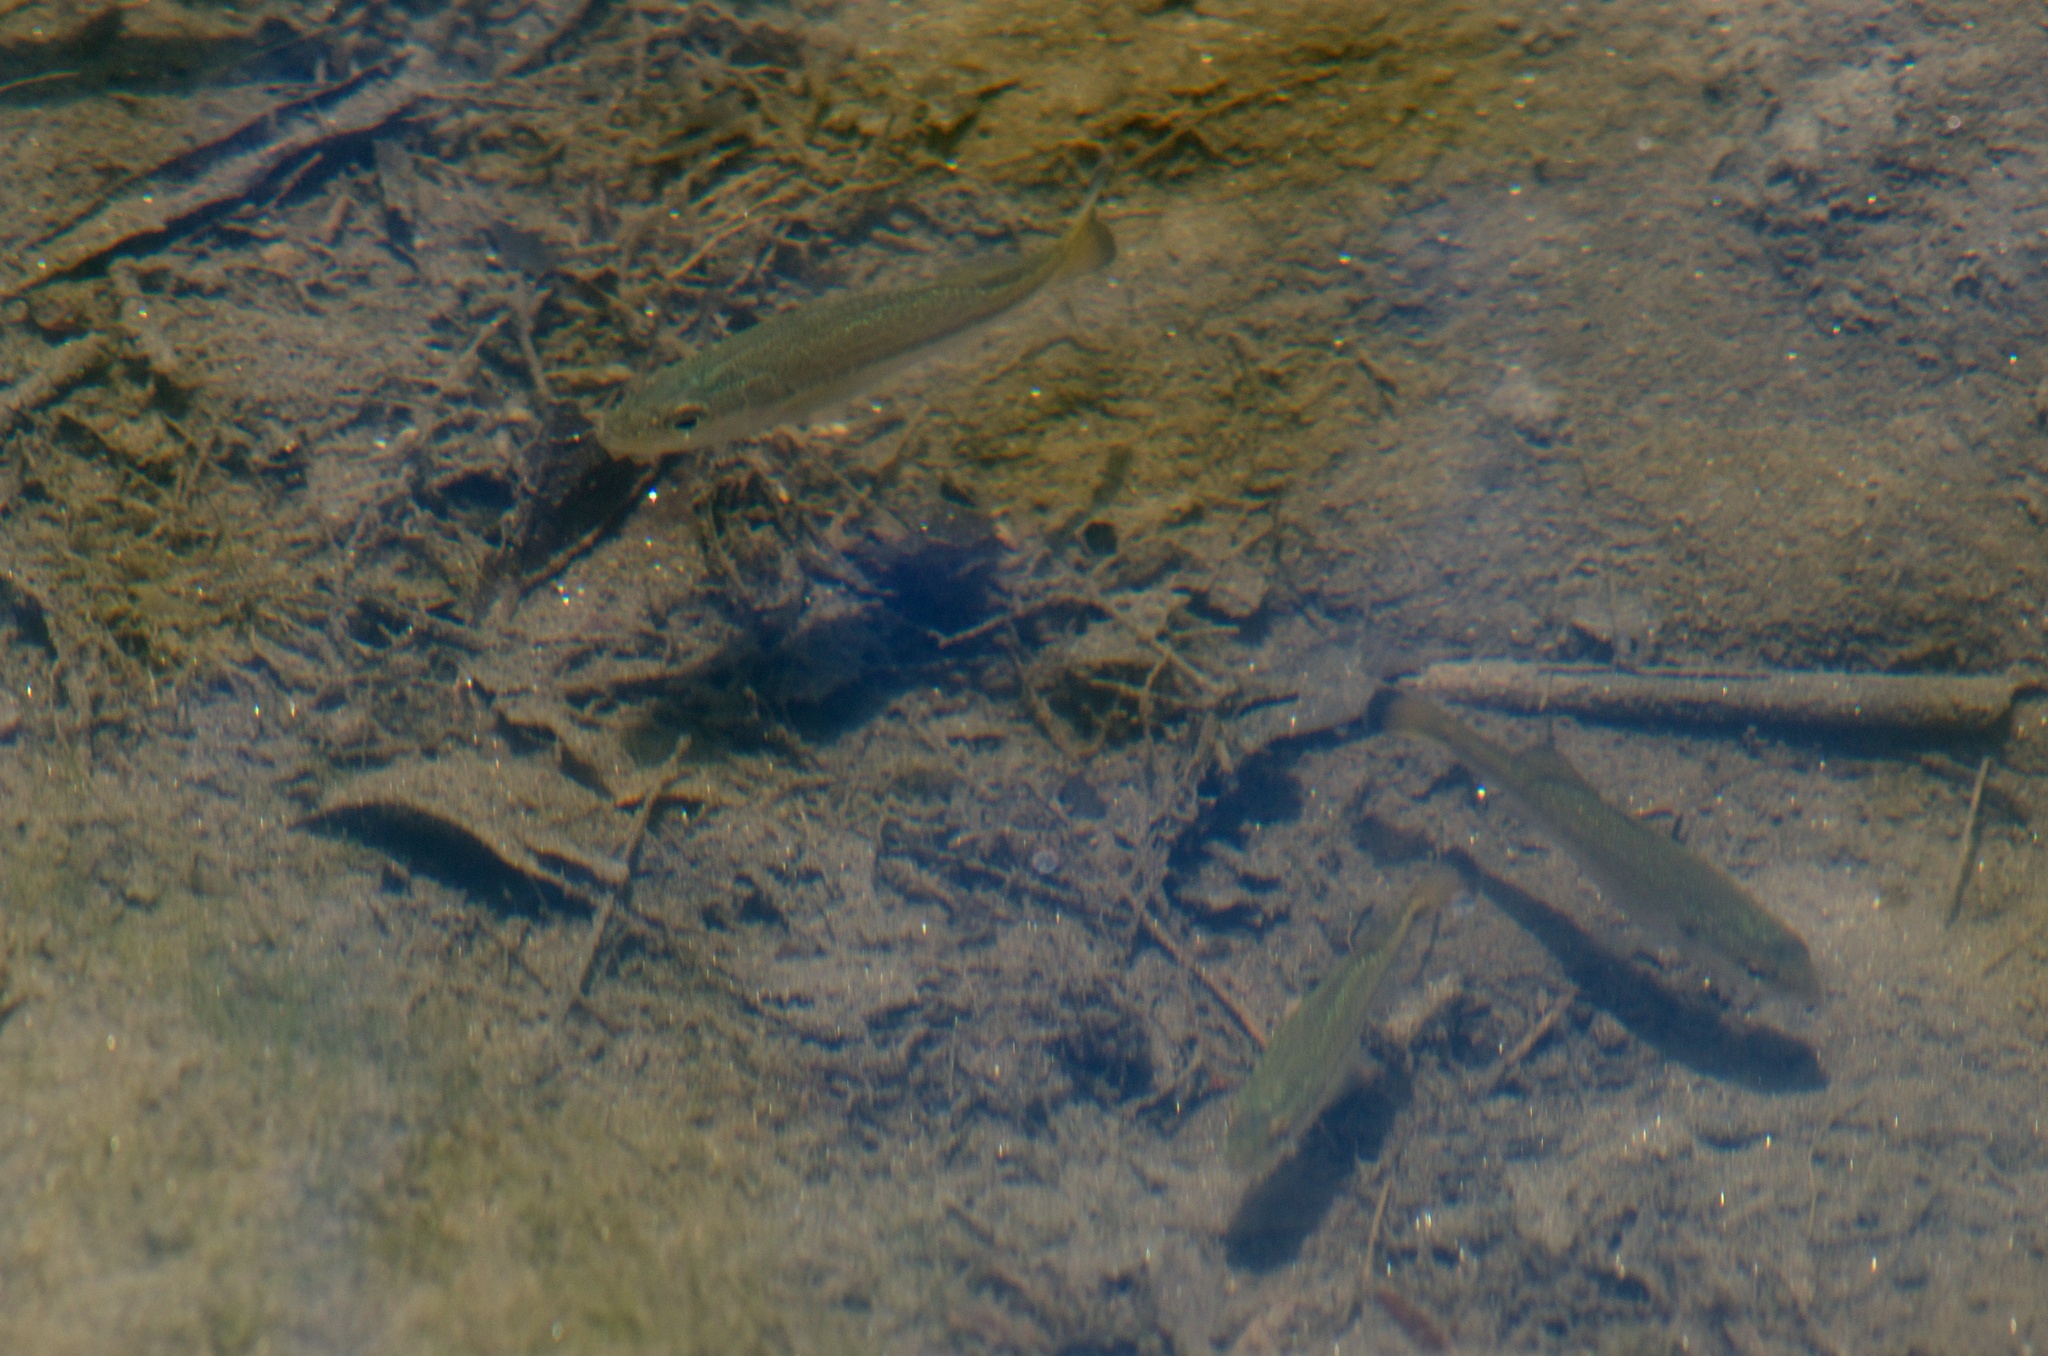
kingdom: Animalia
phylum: Chordata
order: Perciformes
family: Centrarchidae
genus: Micropterus
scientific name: Micropterus
